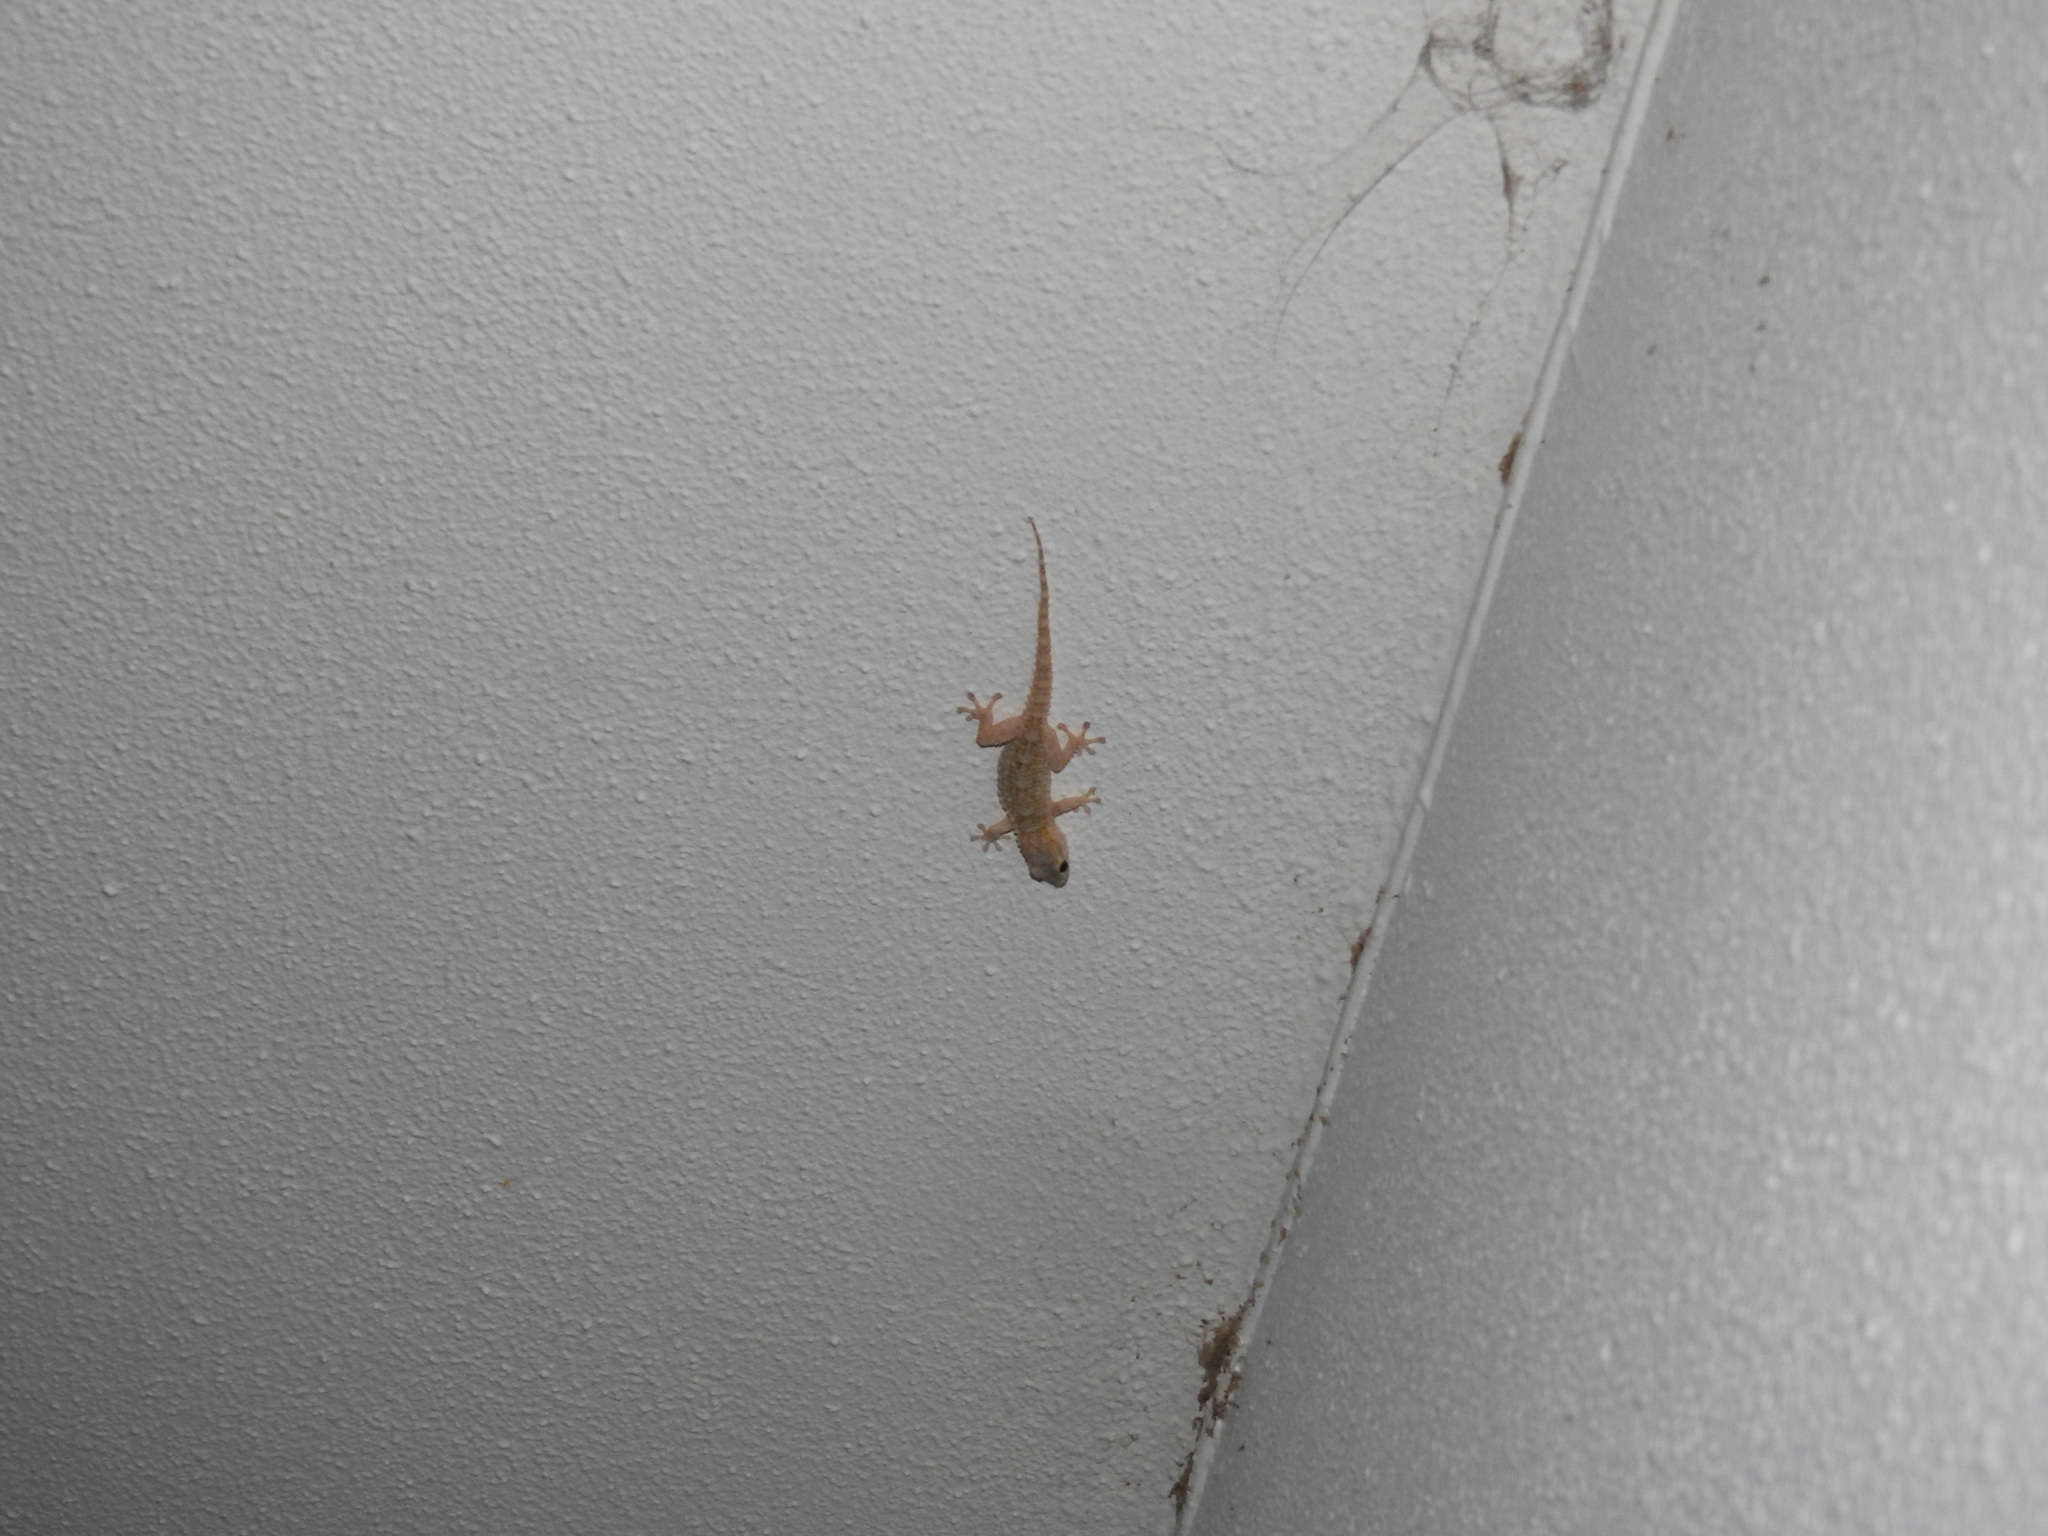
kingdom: Animalia
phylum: Chordata
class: Squamata
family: Phyllodactylidae
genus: Tarentola
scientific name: Tarentola mauritanica
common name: Moorish gecko
